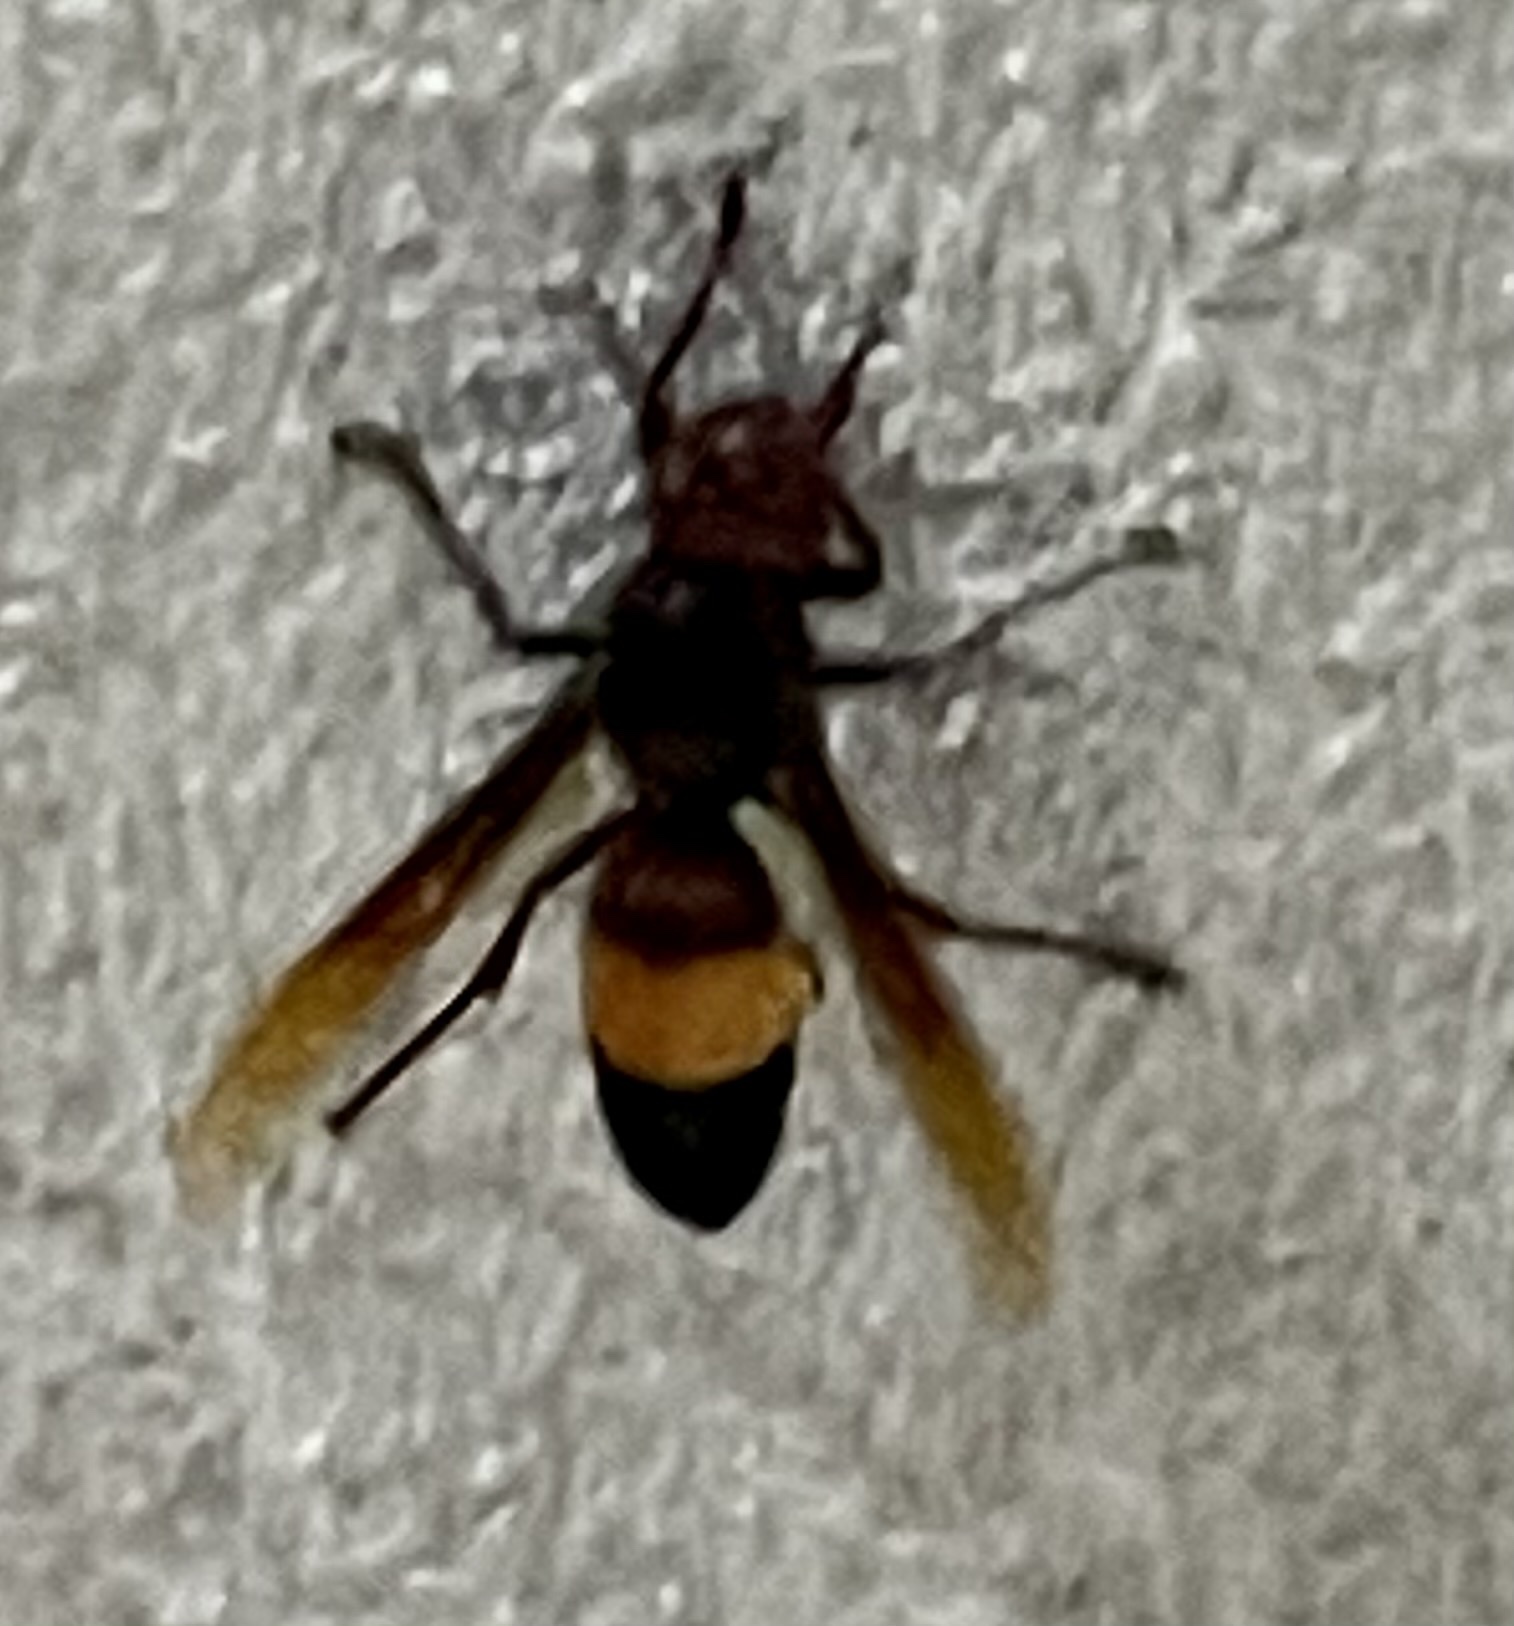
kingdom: Animalia
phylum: Arthropoda
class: Insecta
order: Hymenoptera
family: Vespidae
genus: Vespa
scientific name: Vespa tropica
